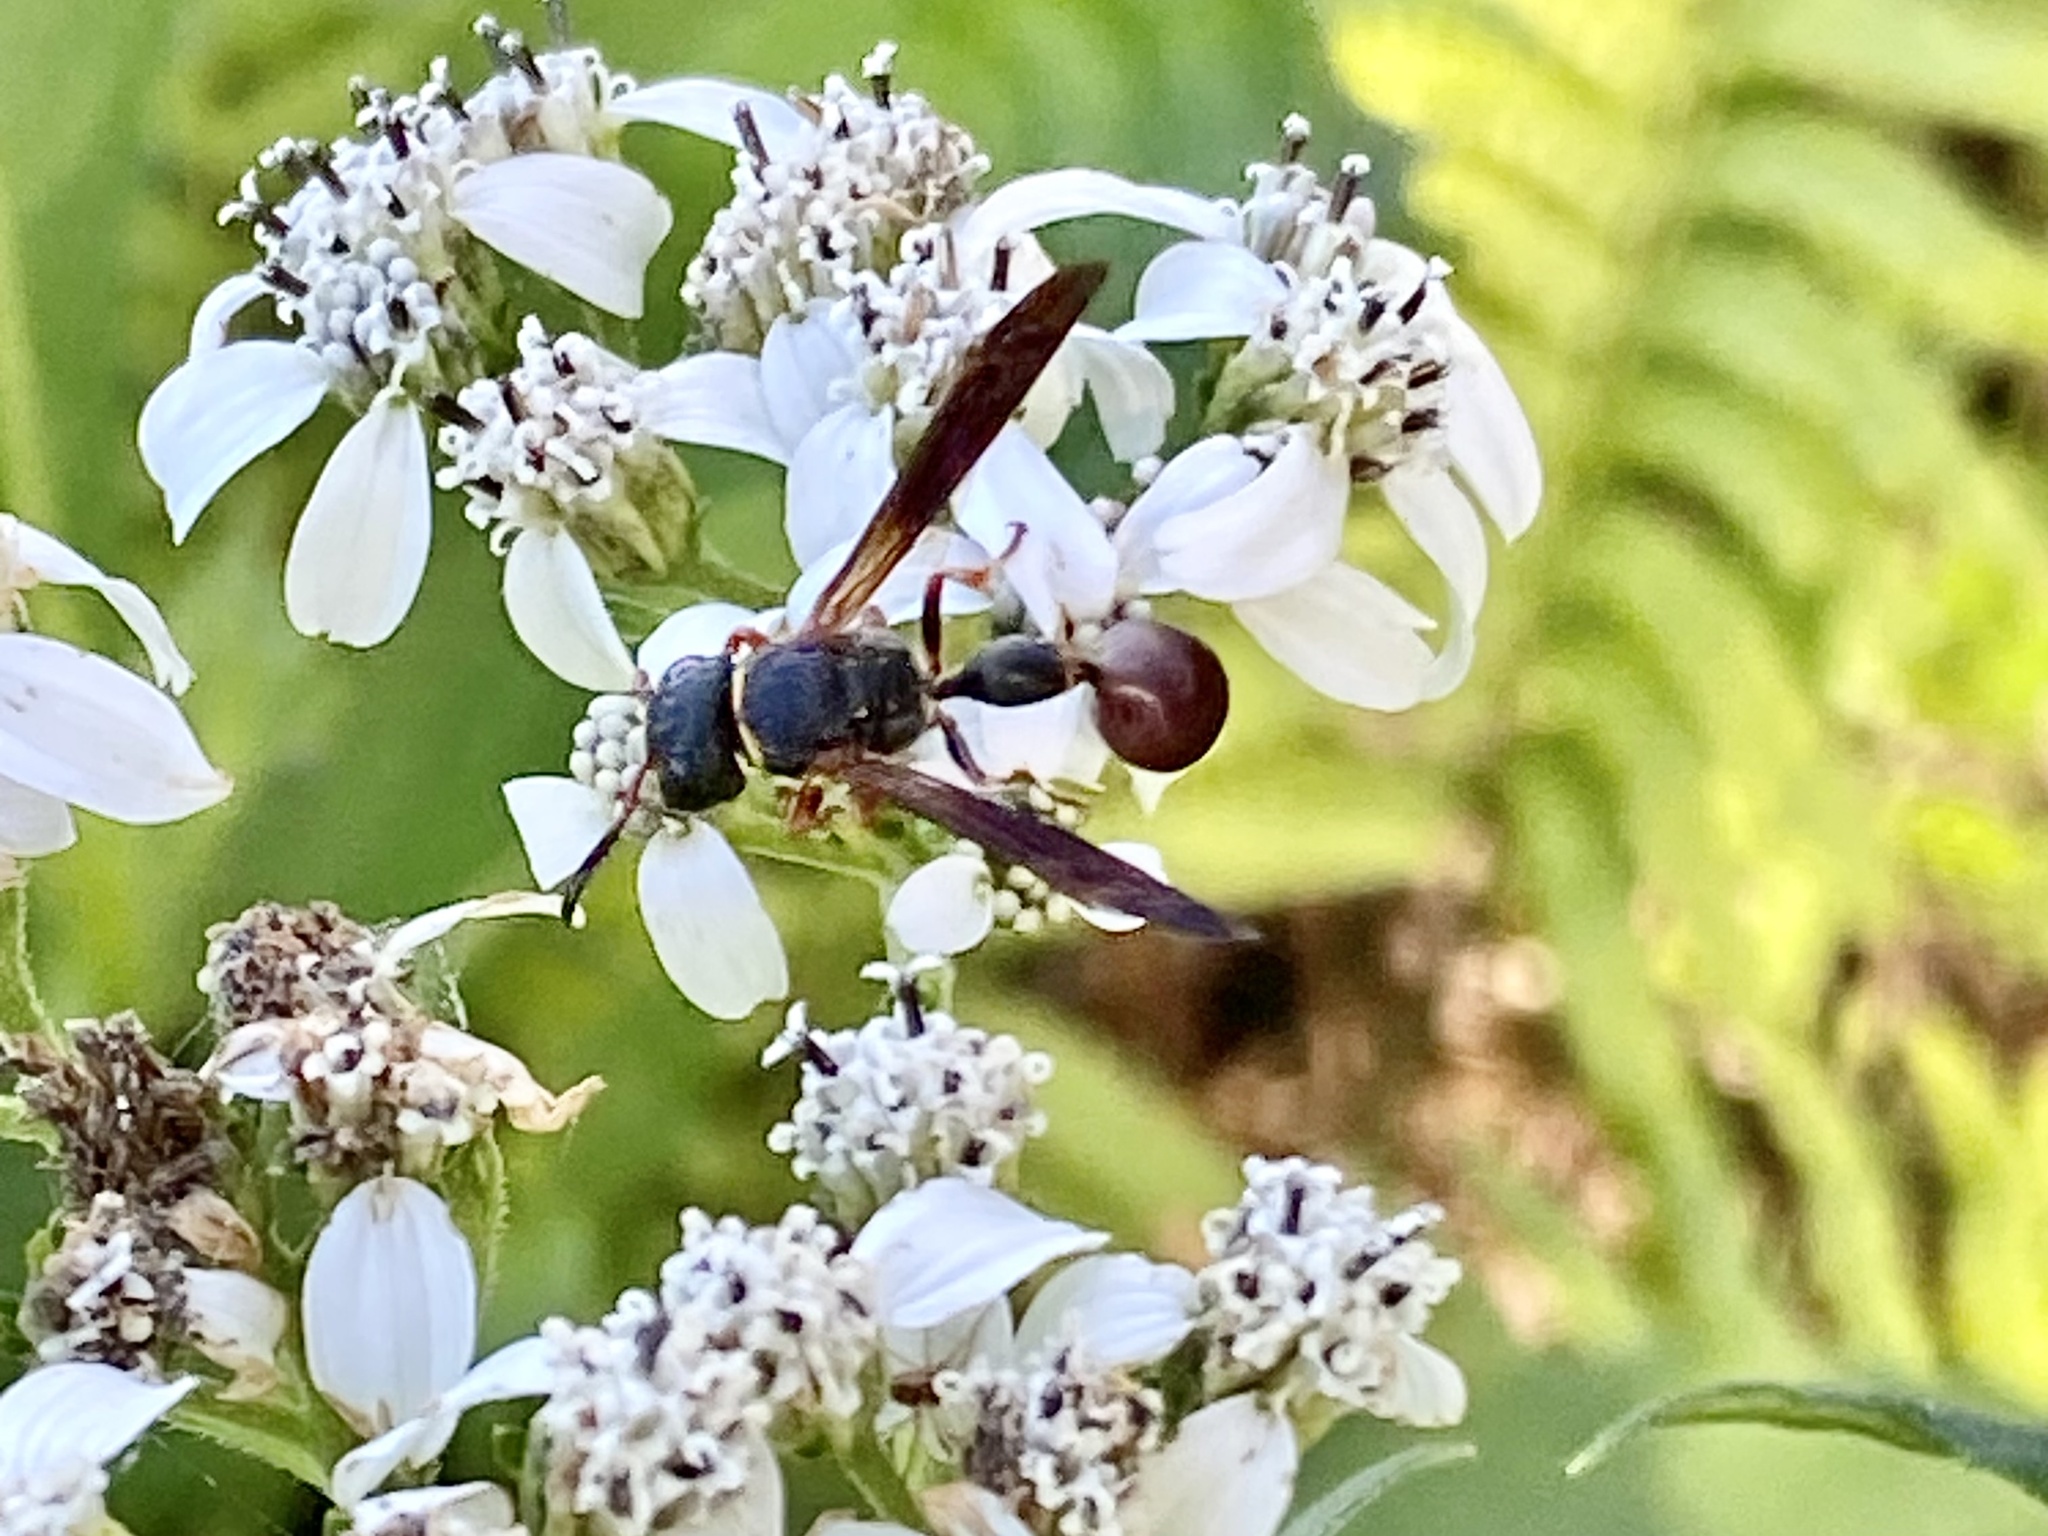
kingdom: Animalia
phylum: Arthropoda
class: Insecta
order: Hymenoptera
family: Eumenidae
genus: Zethus
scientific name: Zethus slossonae
